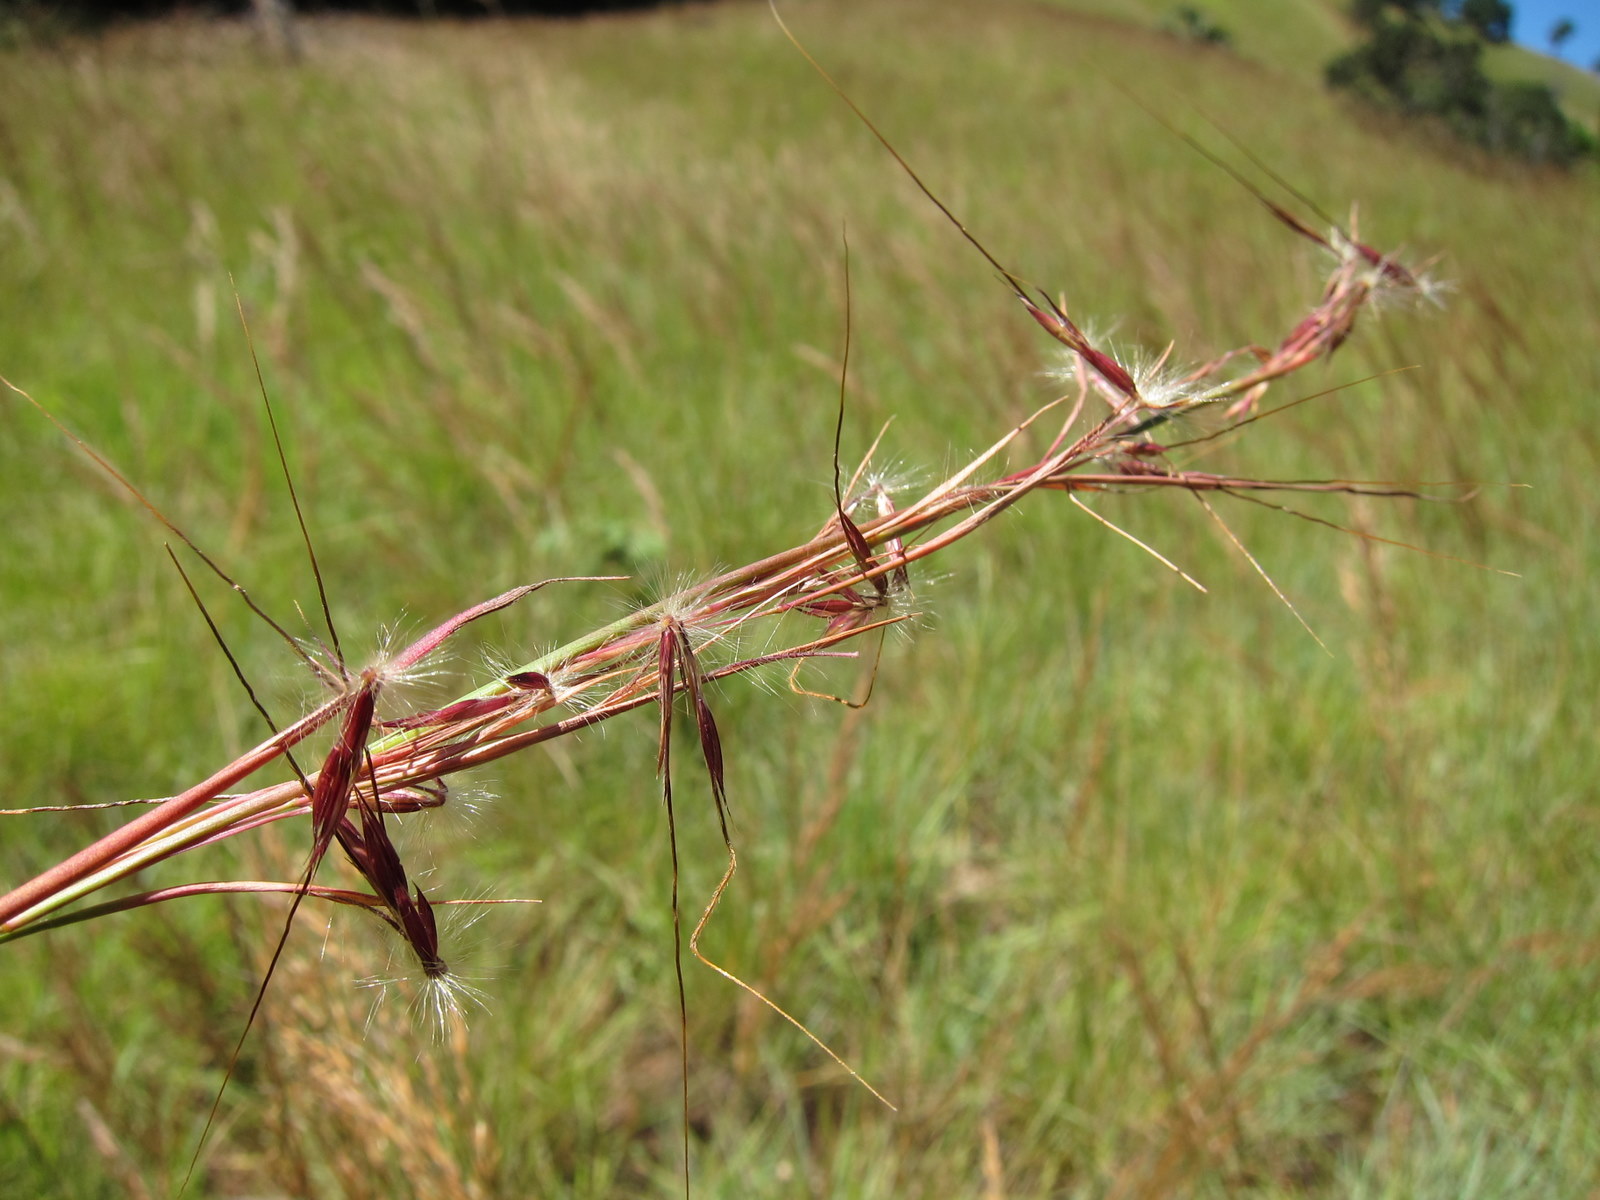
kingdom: Plantae
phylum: Tracheophyta
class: Liliopsida
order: Poales
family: Poaceae
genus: Hyparrhenia
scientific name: Hyparrhenia newtonii
